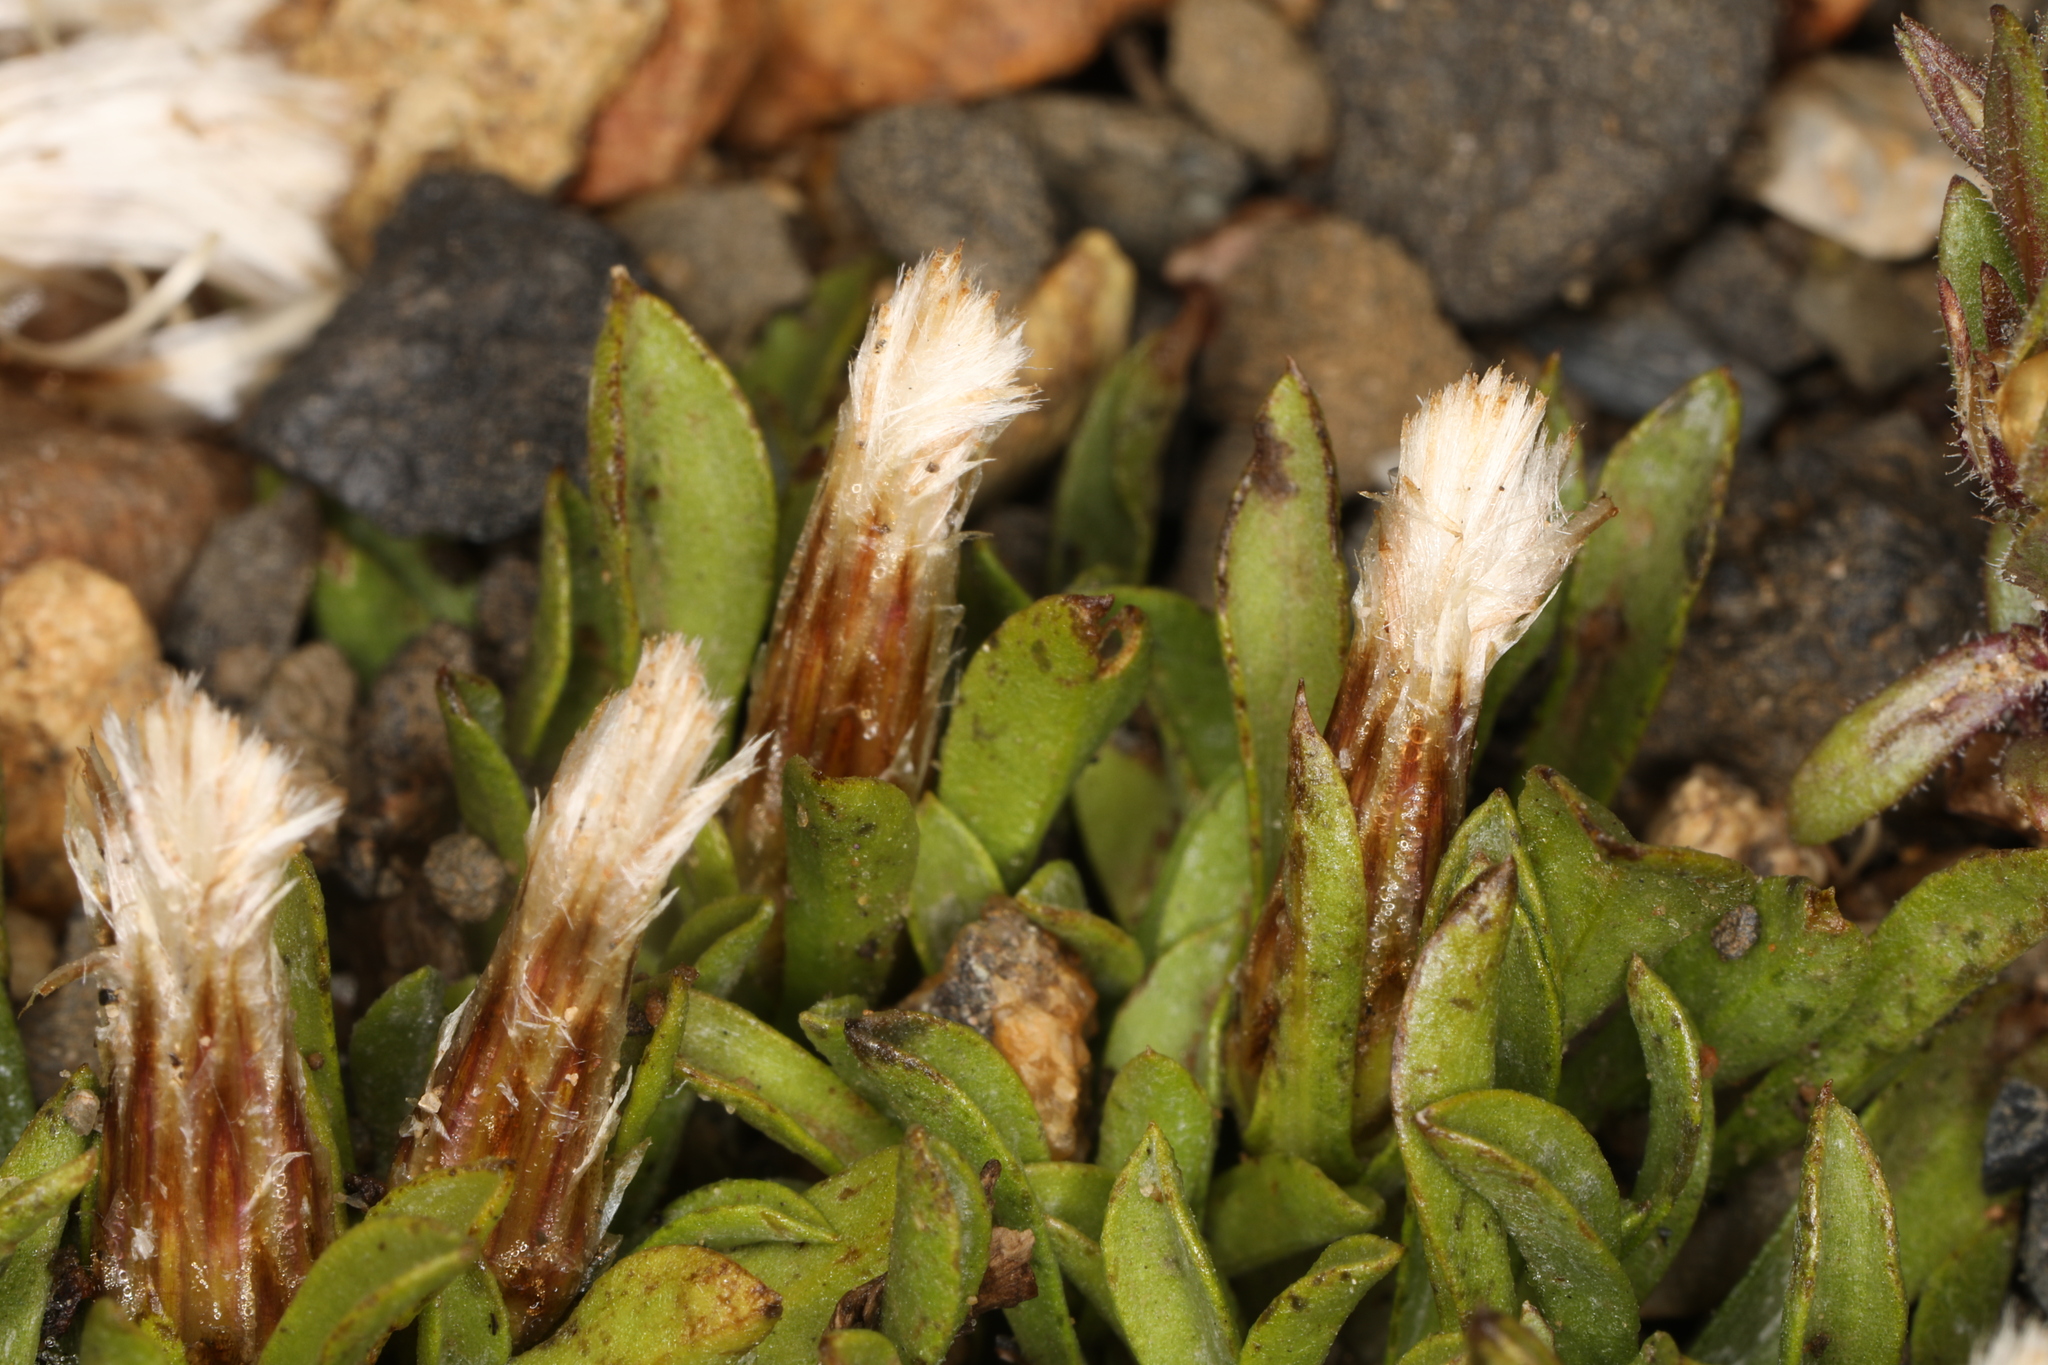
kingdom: Plantae
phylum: Tracheophyta
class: Magnoliopsida
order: Asterales
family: Asteraceae
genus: Antennaria
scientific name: Antennaria dimorpha
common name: Cushion pussytoes
